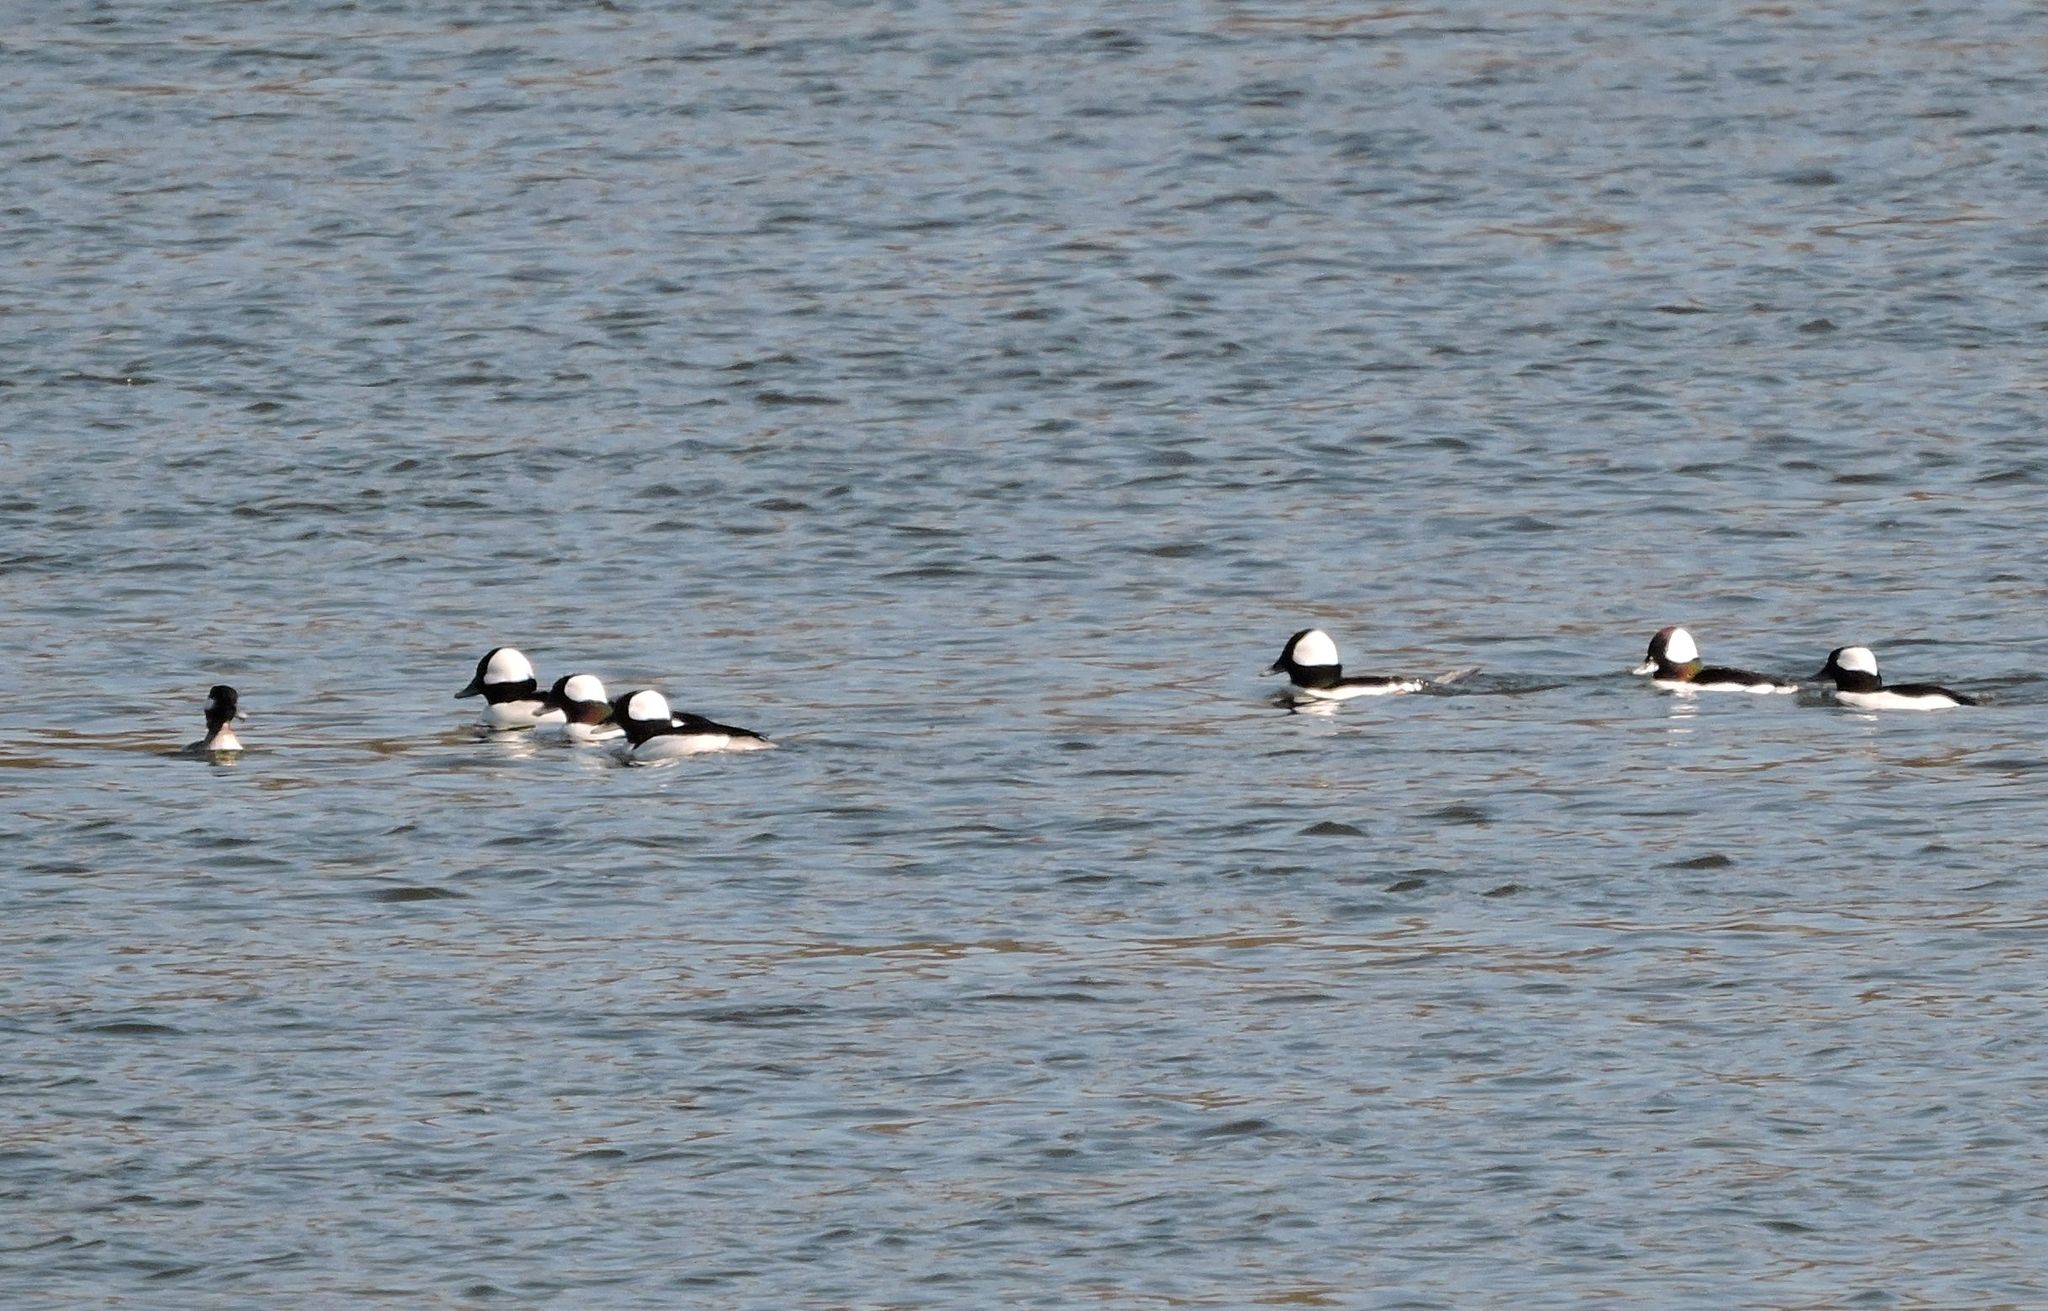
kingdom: Animalia
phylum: Chordata
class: Aves
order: Anseriformes
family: Anatidae
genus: Bucephala
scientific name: Bucephala albeola
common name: Bufflehead
